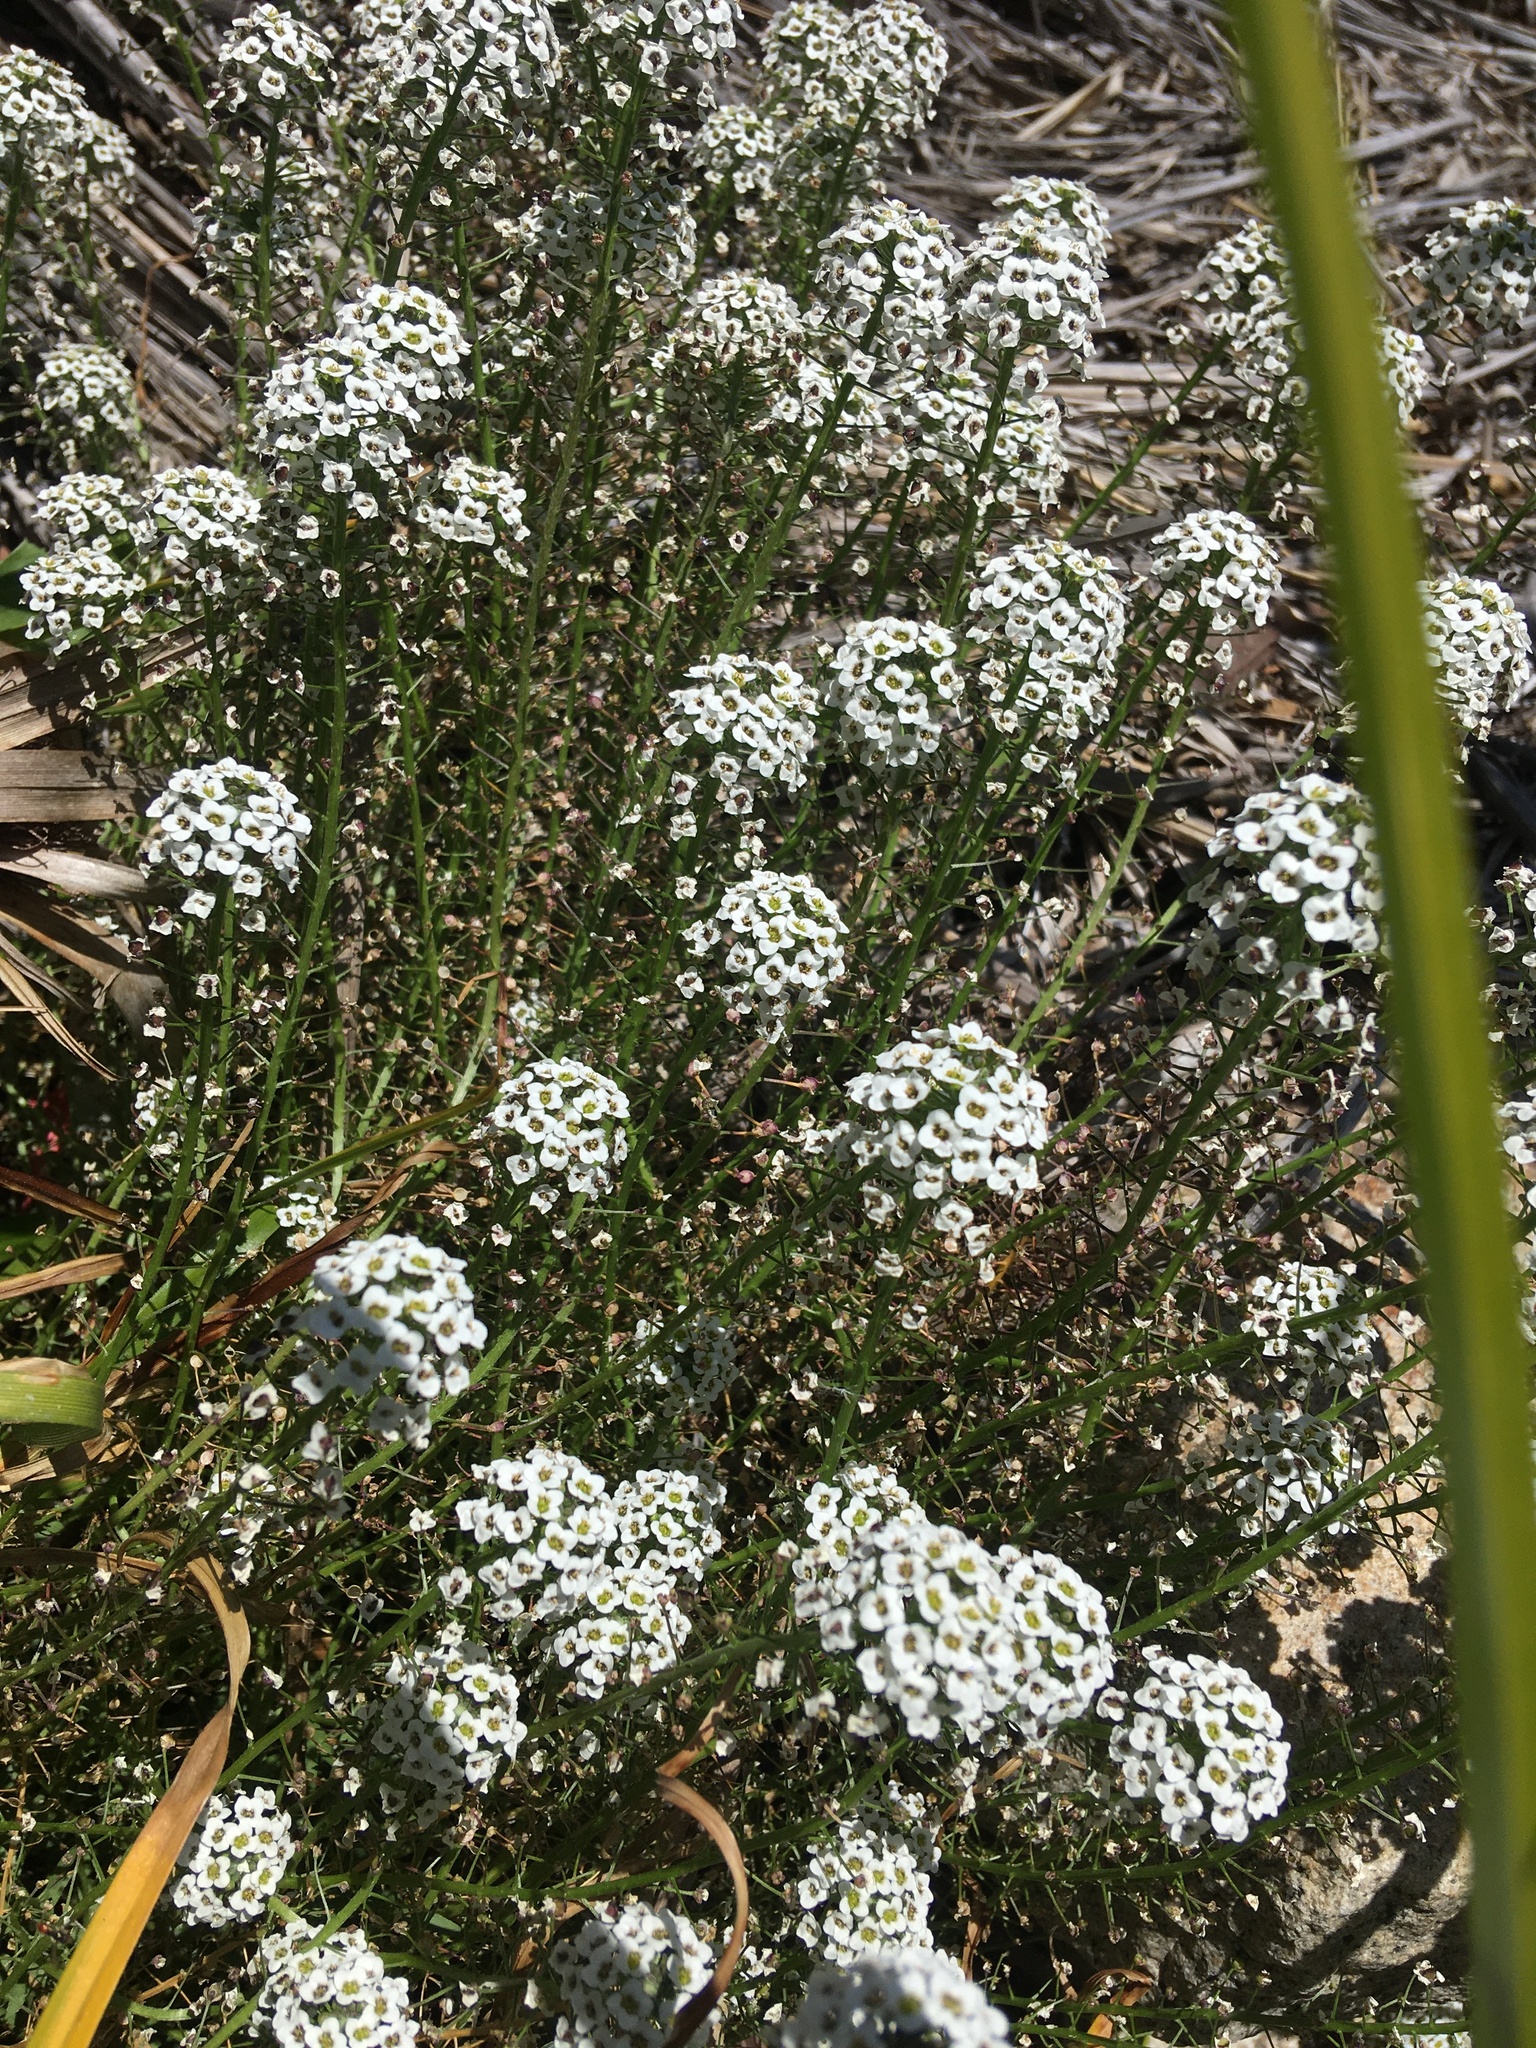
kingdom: Plantae
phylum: Tracheophyta
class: Magnoliopsida
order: Brassicales
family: Brassicaceae
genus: Lobularia
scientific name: Lobularia maritima
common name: Sweet alison
